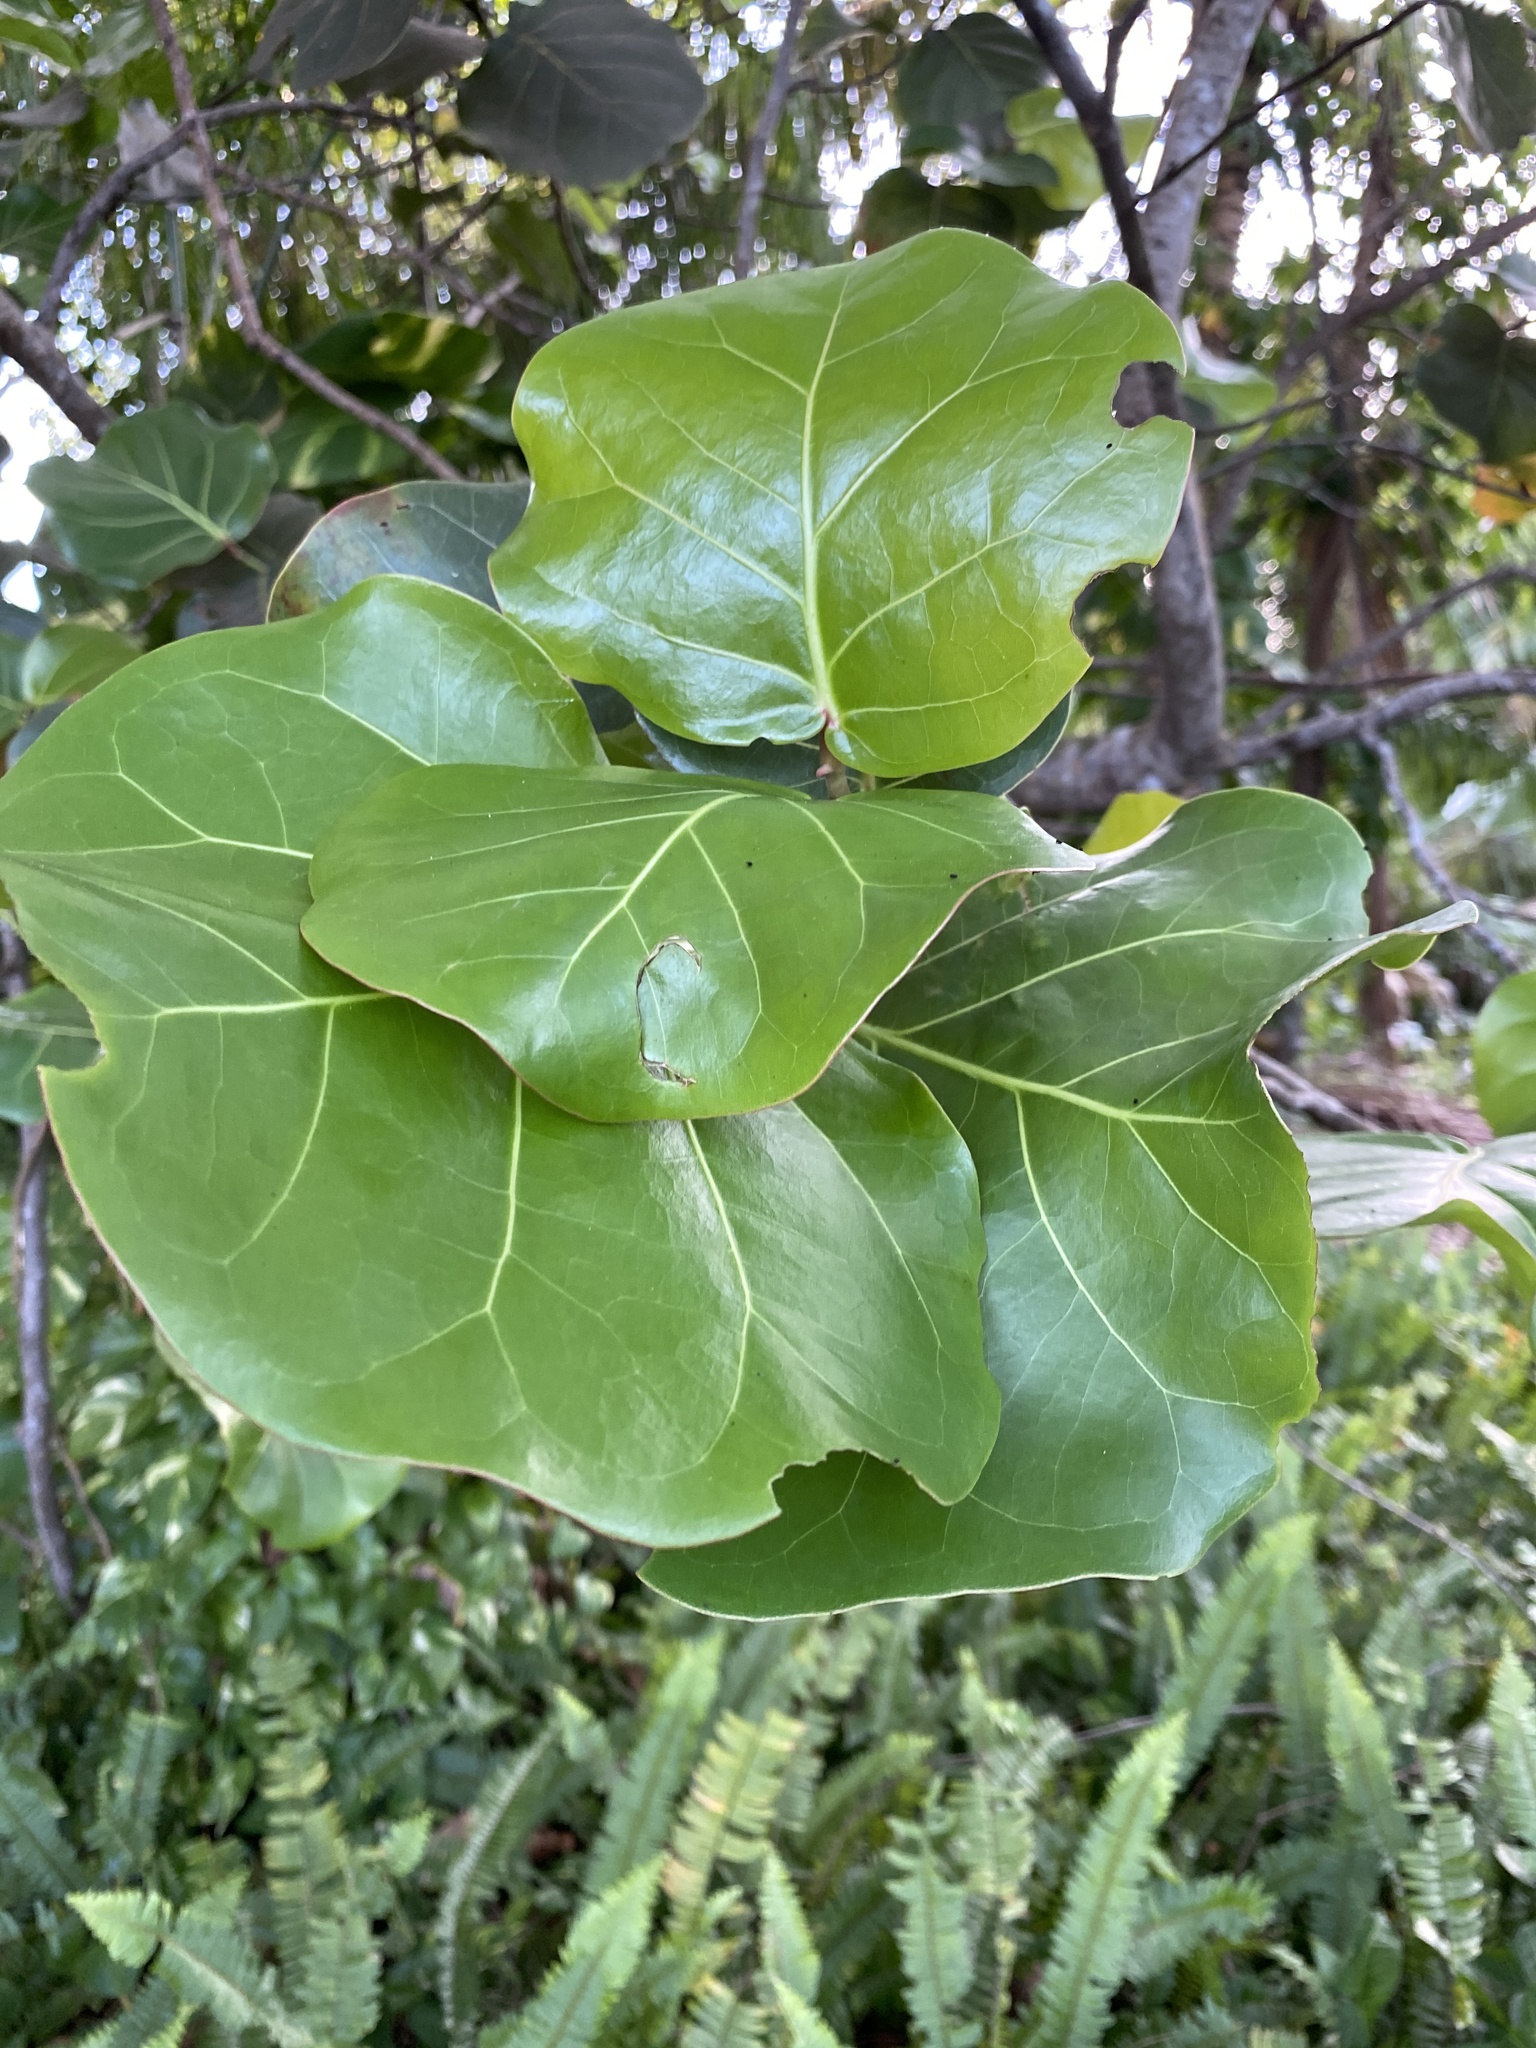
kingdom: Plantae
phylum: Tracheophyta
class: Magnoliopsida
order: Caryophyllales
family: Polygonaceae
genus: Coccoloba
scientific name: Coccoloba uvifera
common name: Seagrape
